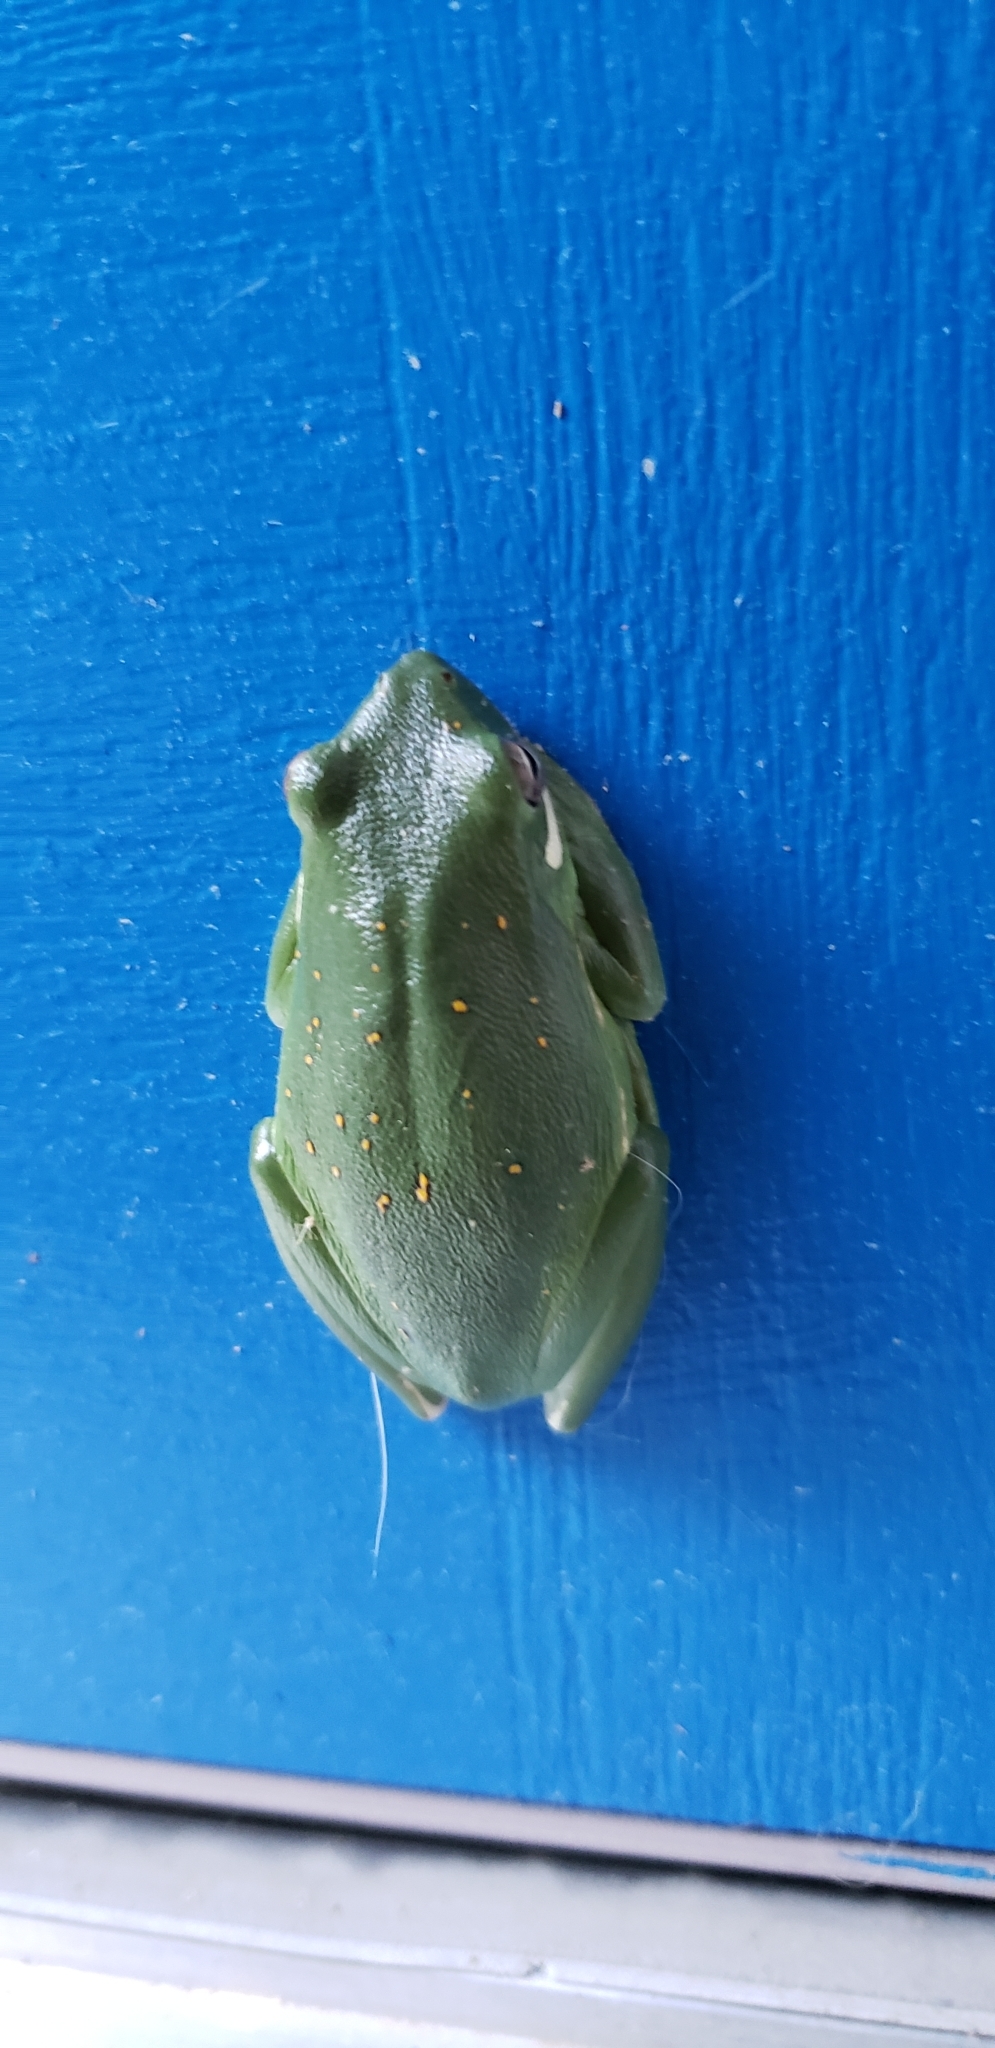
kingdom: Animalia
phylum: Chordata
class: Amphibia
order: Anura
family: Hylidae
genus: Dryophytes
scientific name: Dryophytes cinereus
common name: Green treefrog
